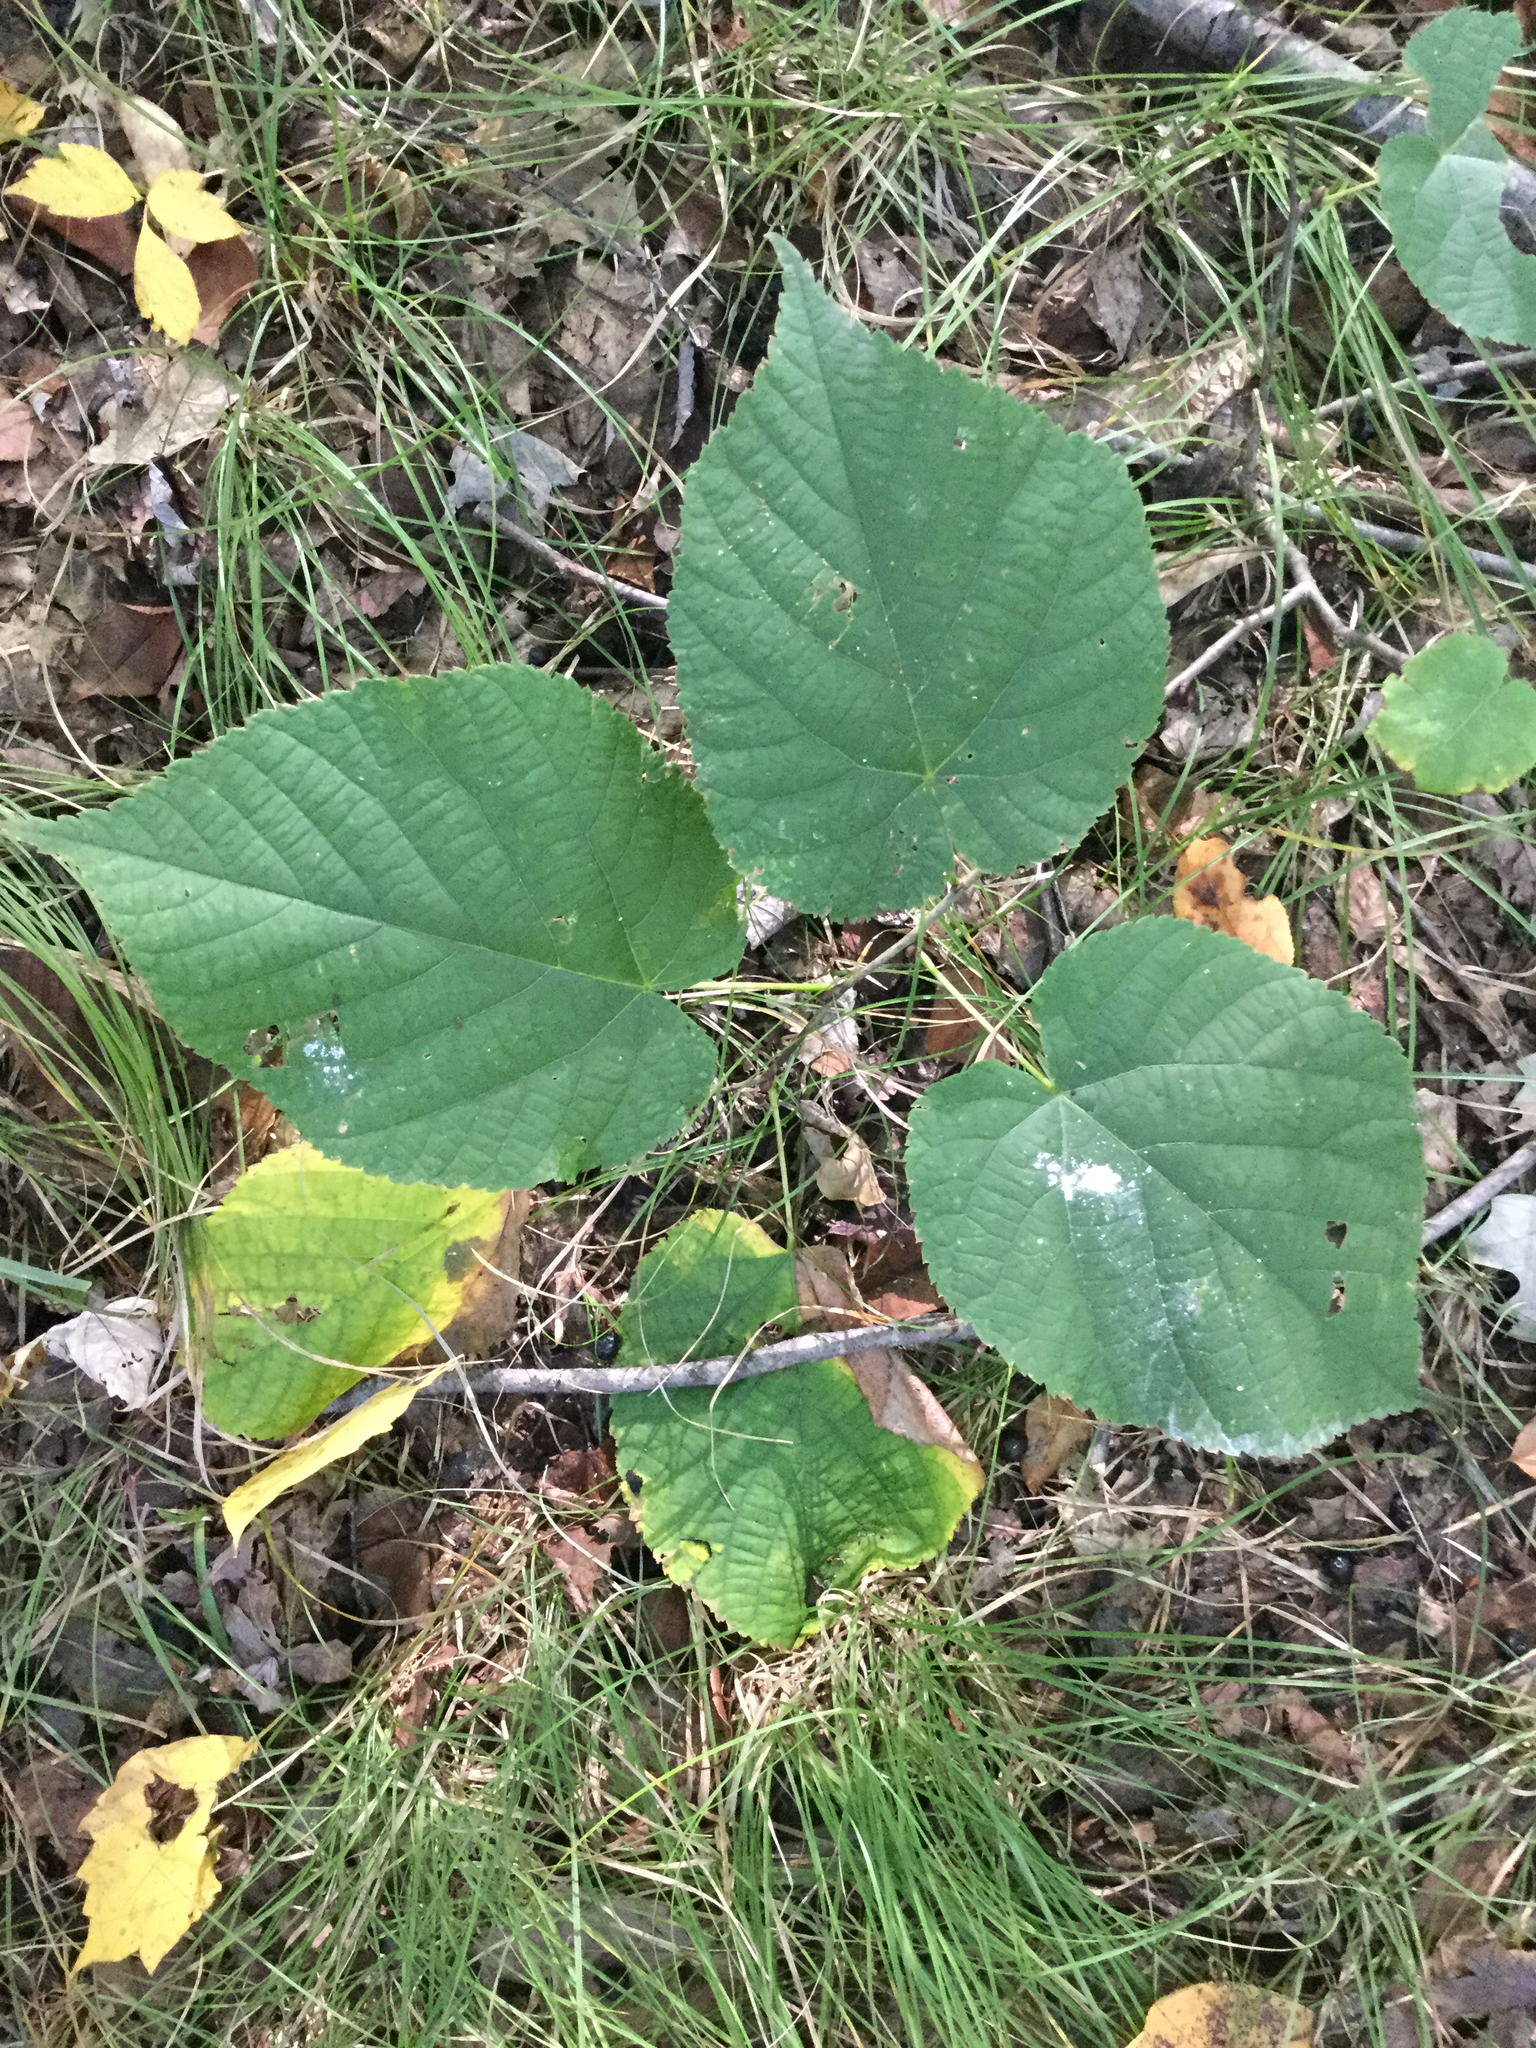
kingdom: Plantae
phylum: Tracheophyta
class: Magnoliopsida
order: Malvales
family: Malvaceae
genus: Tilia
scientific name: Tilia americana
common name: Basswood
